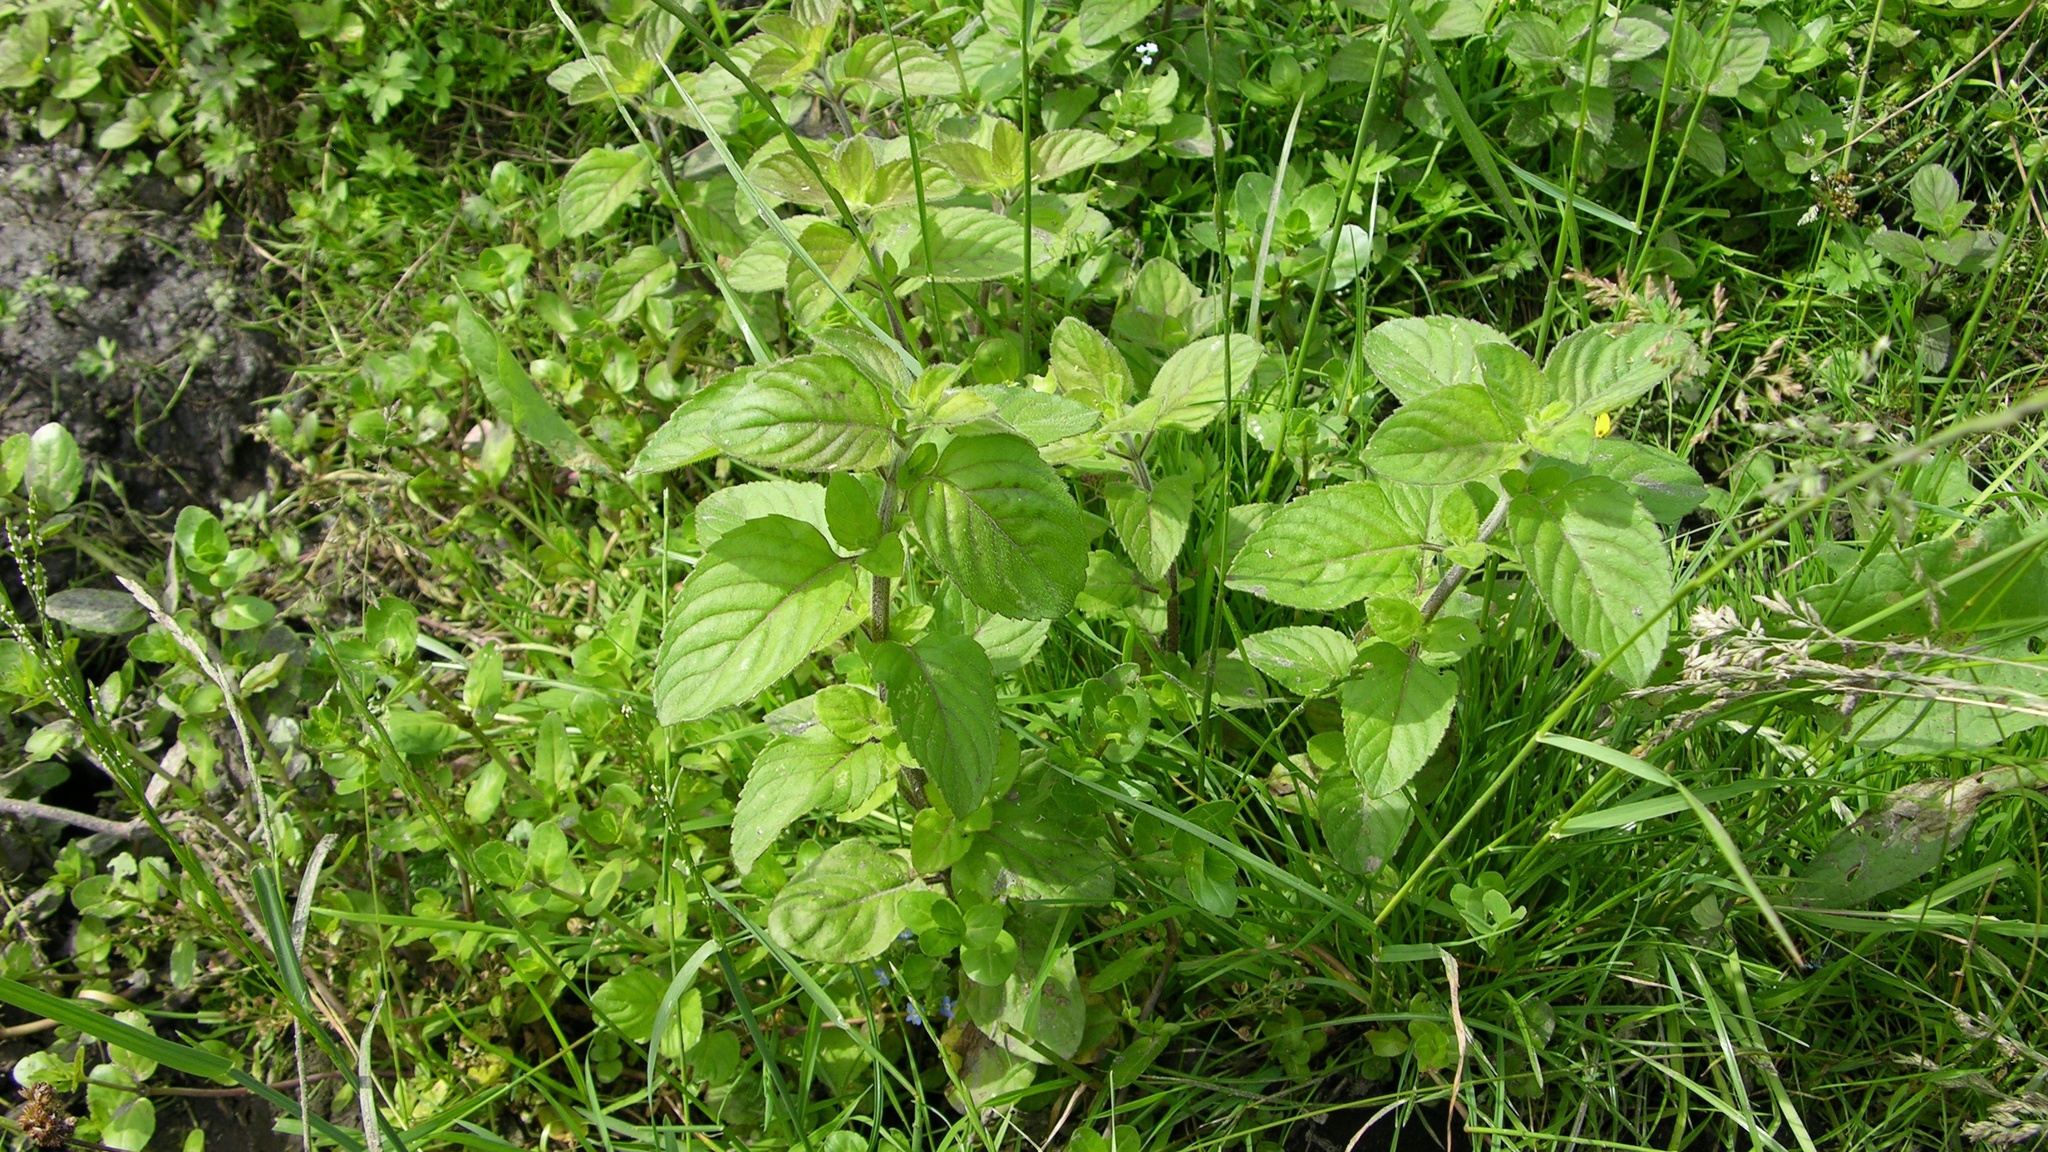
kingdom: Plantae
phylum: Tracheophyta
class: Magnoliopsida
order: Lamiales
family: Lamiaceae
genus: Mentha
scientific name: Mentha aquatica
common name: Water mint
